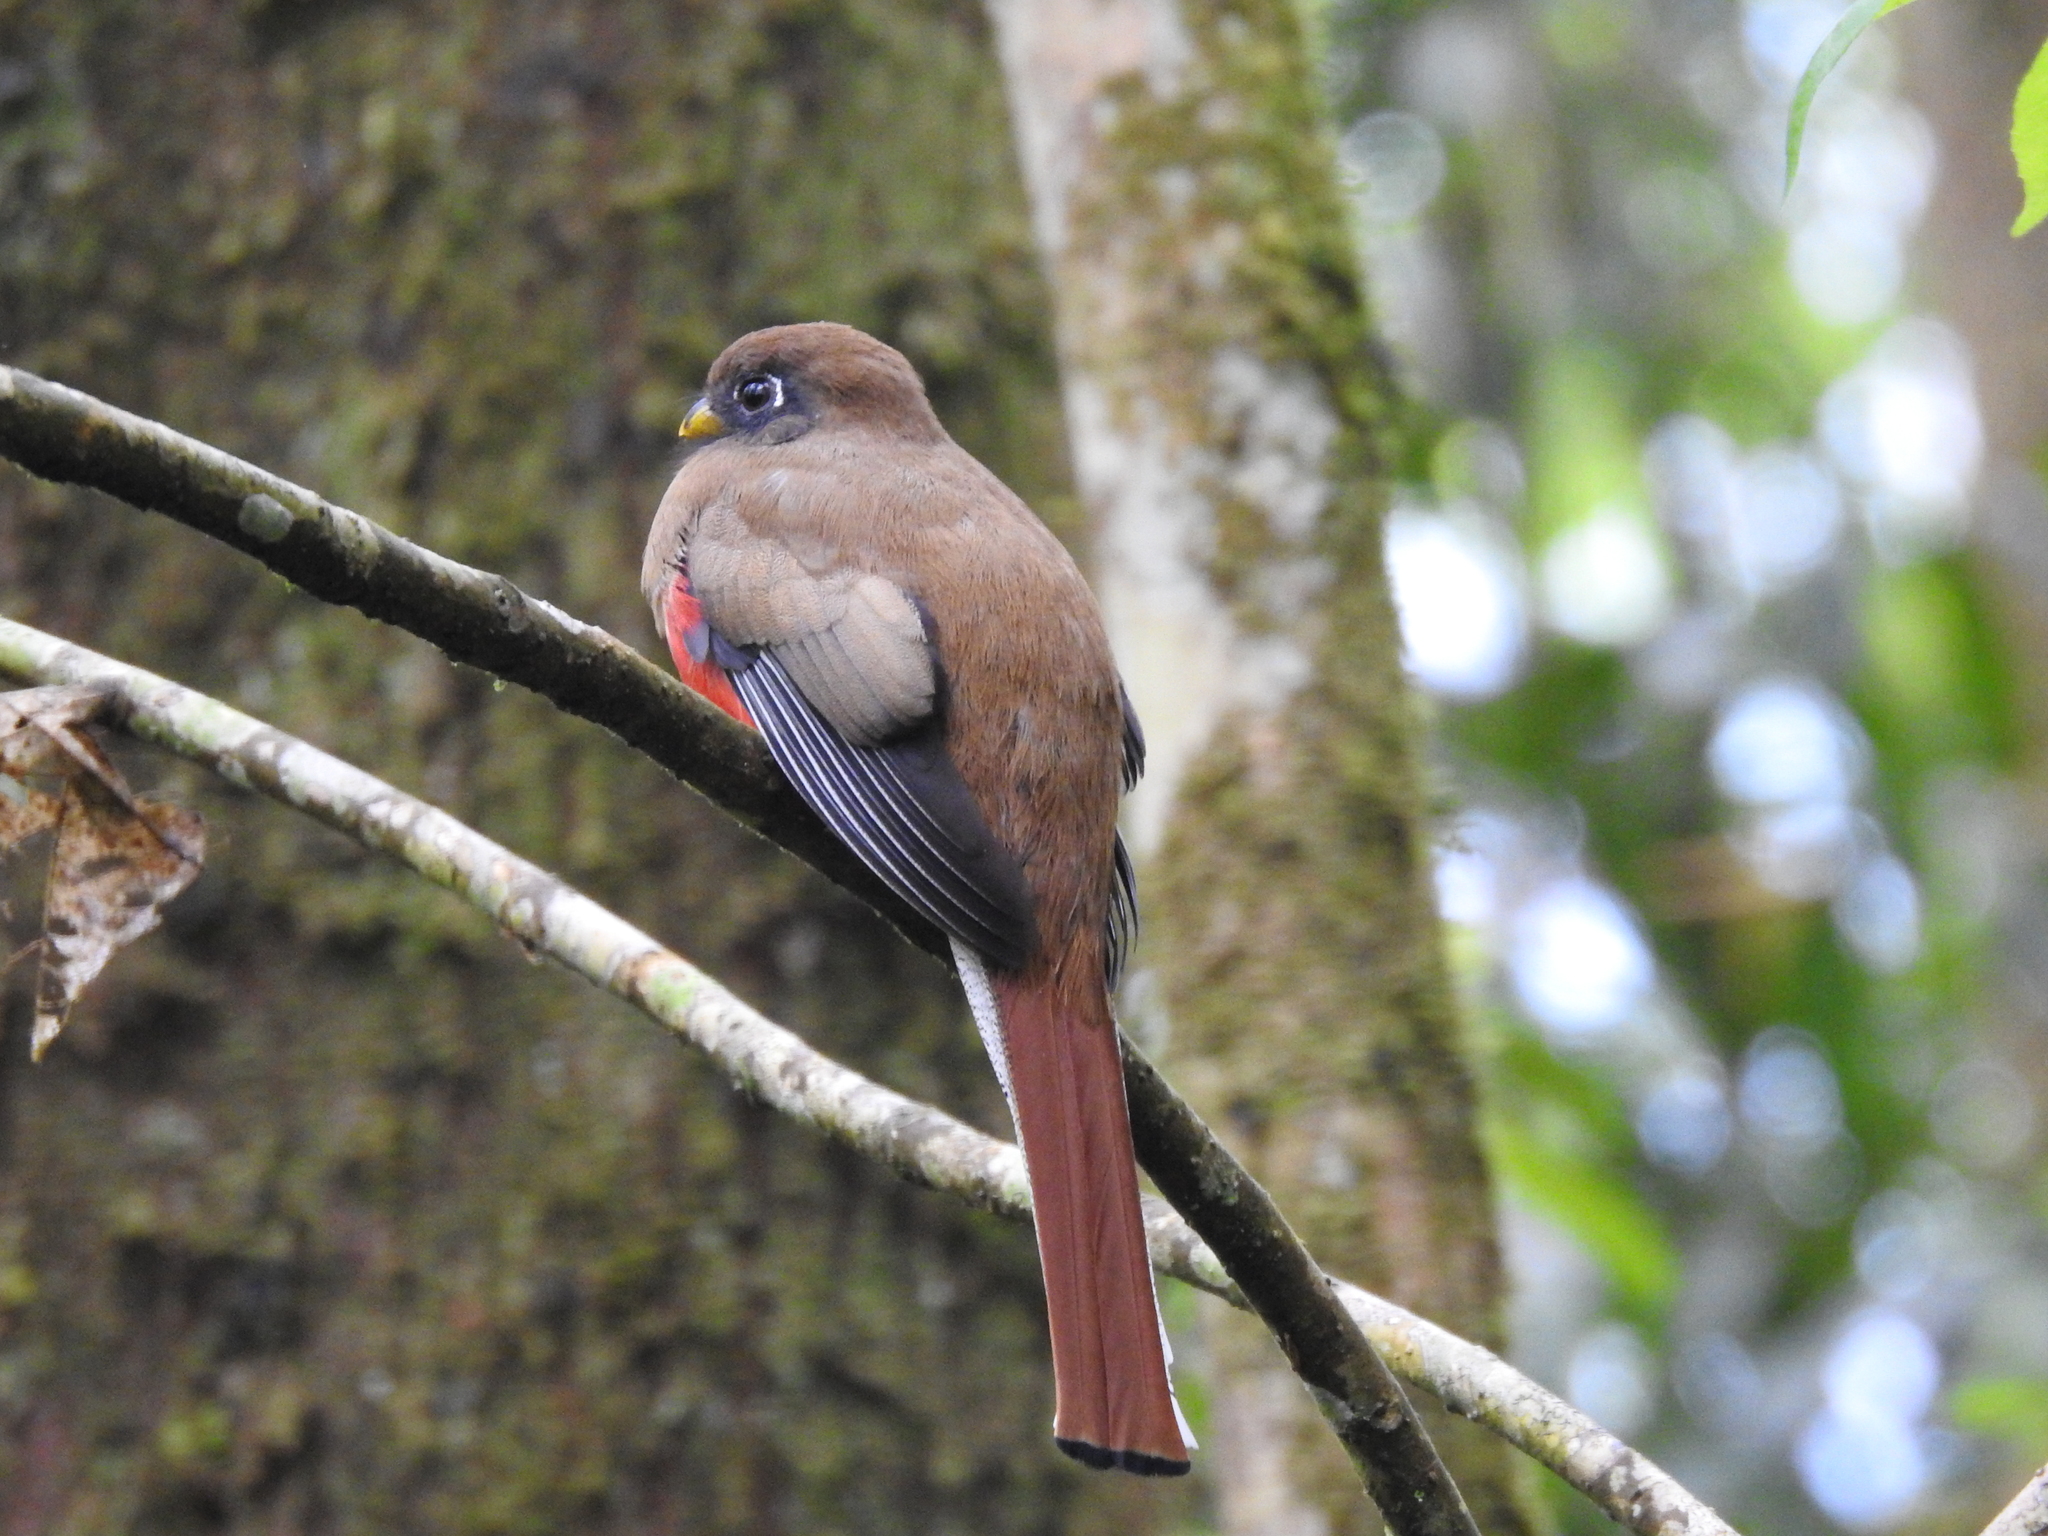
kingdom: Animalia
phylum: Chordata
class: Aves
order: Trogoniformes
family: Trogonidae
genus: Trogon
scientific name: Trogon collaris
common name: Collared trogon
